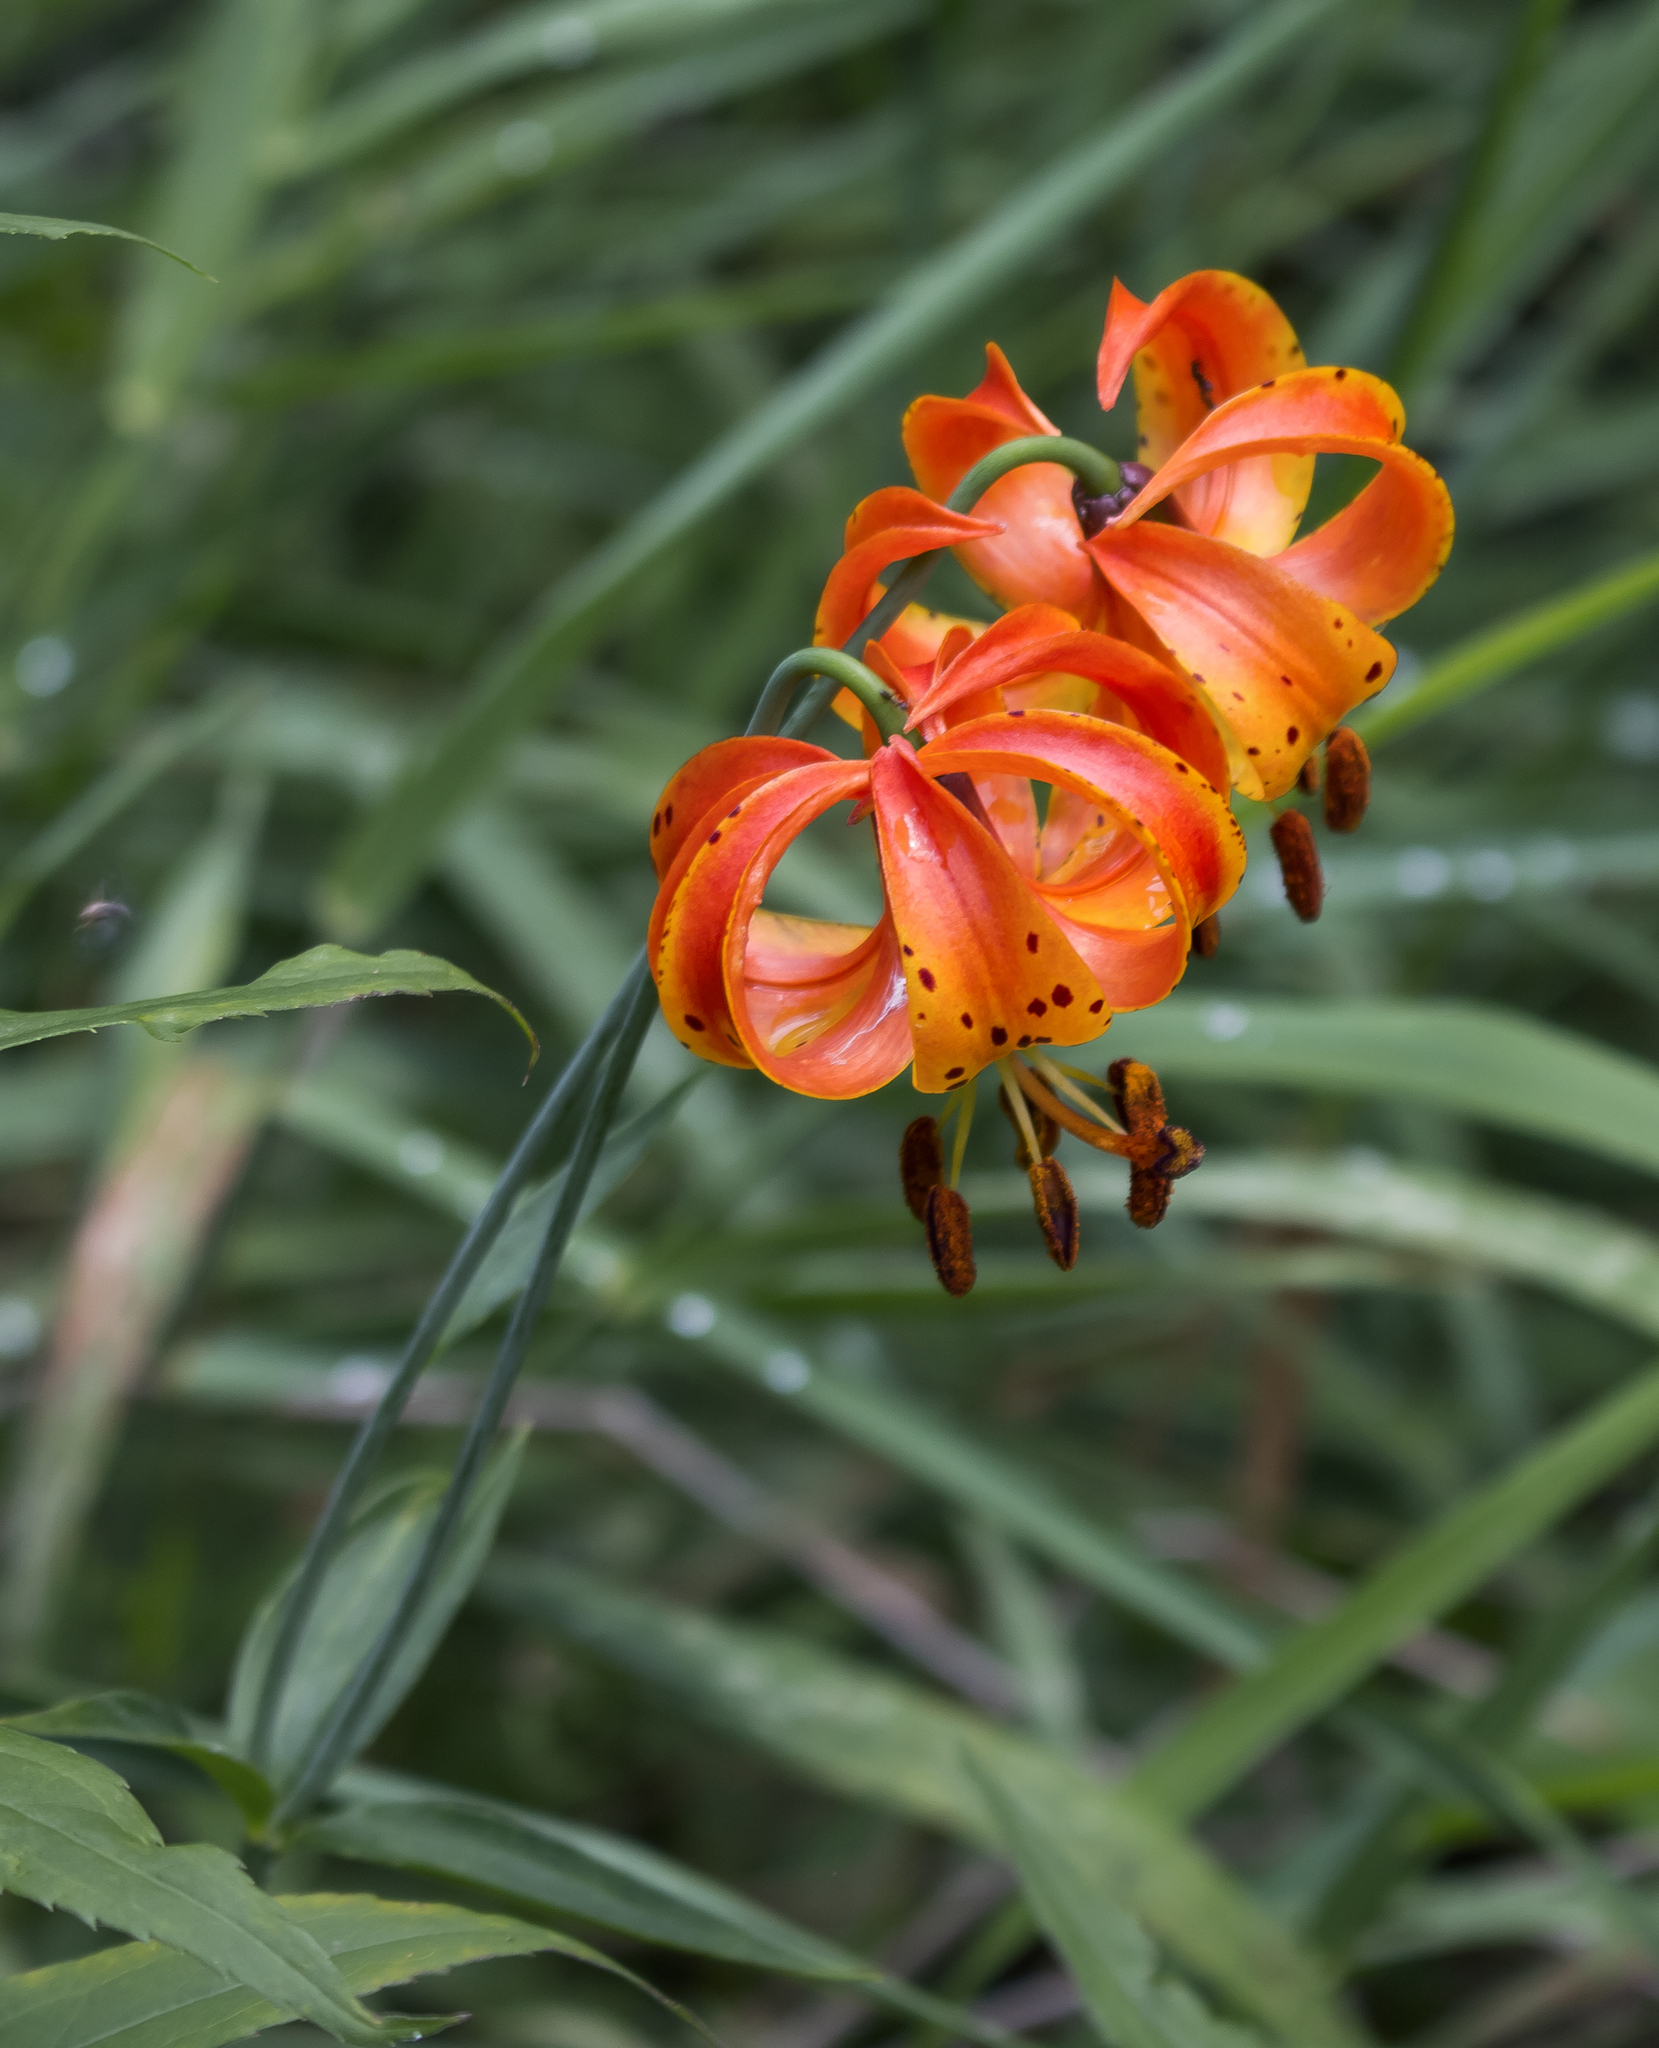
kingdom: Plantae
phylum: Tracheophyta
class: Liliopsida
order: Liliales
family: Liliaceae
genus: Lilium
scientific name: Lilium michiganense
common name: Michigan lily
